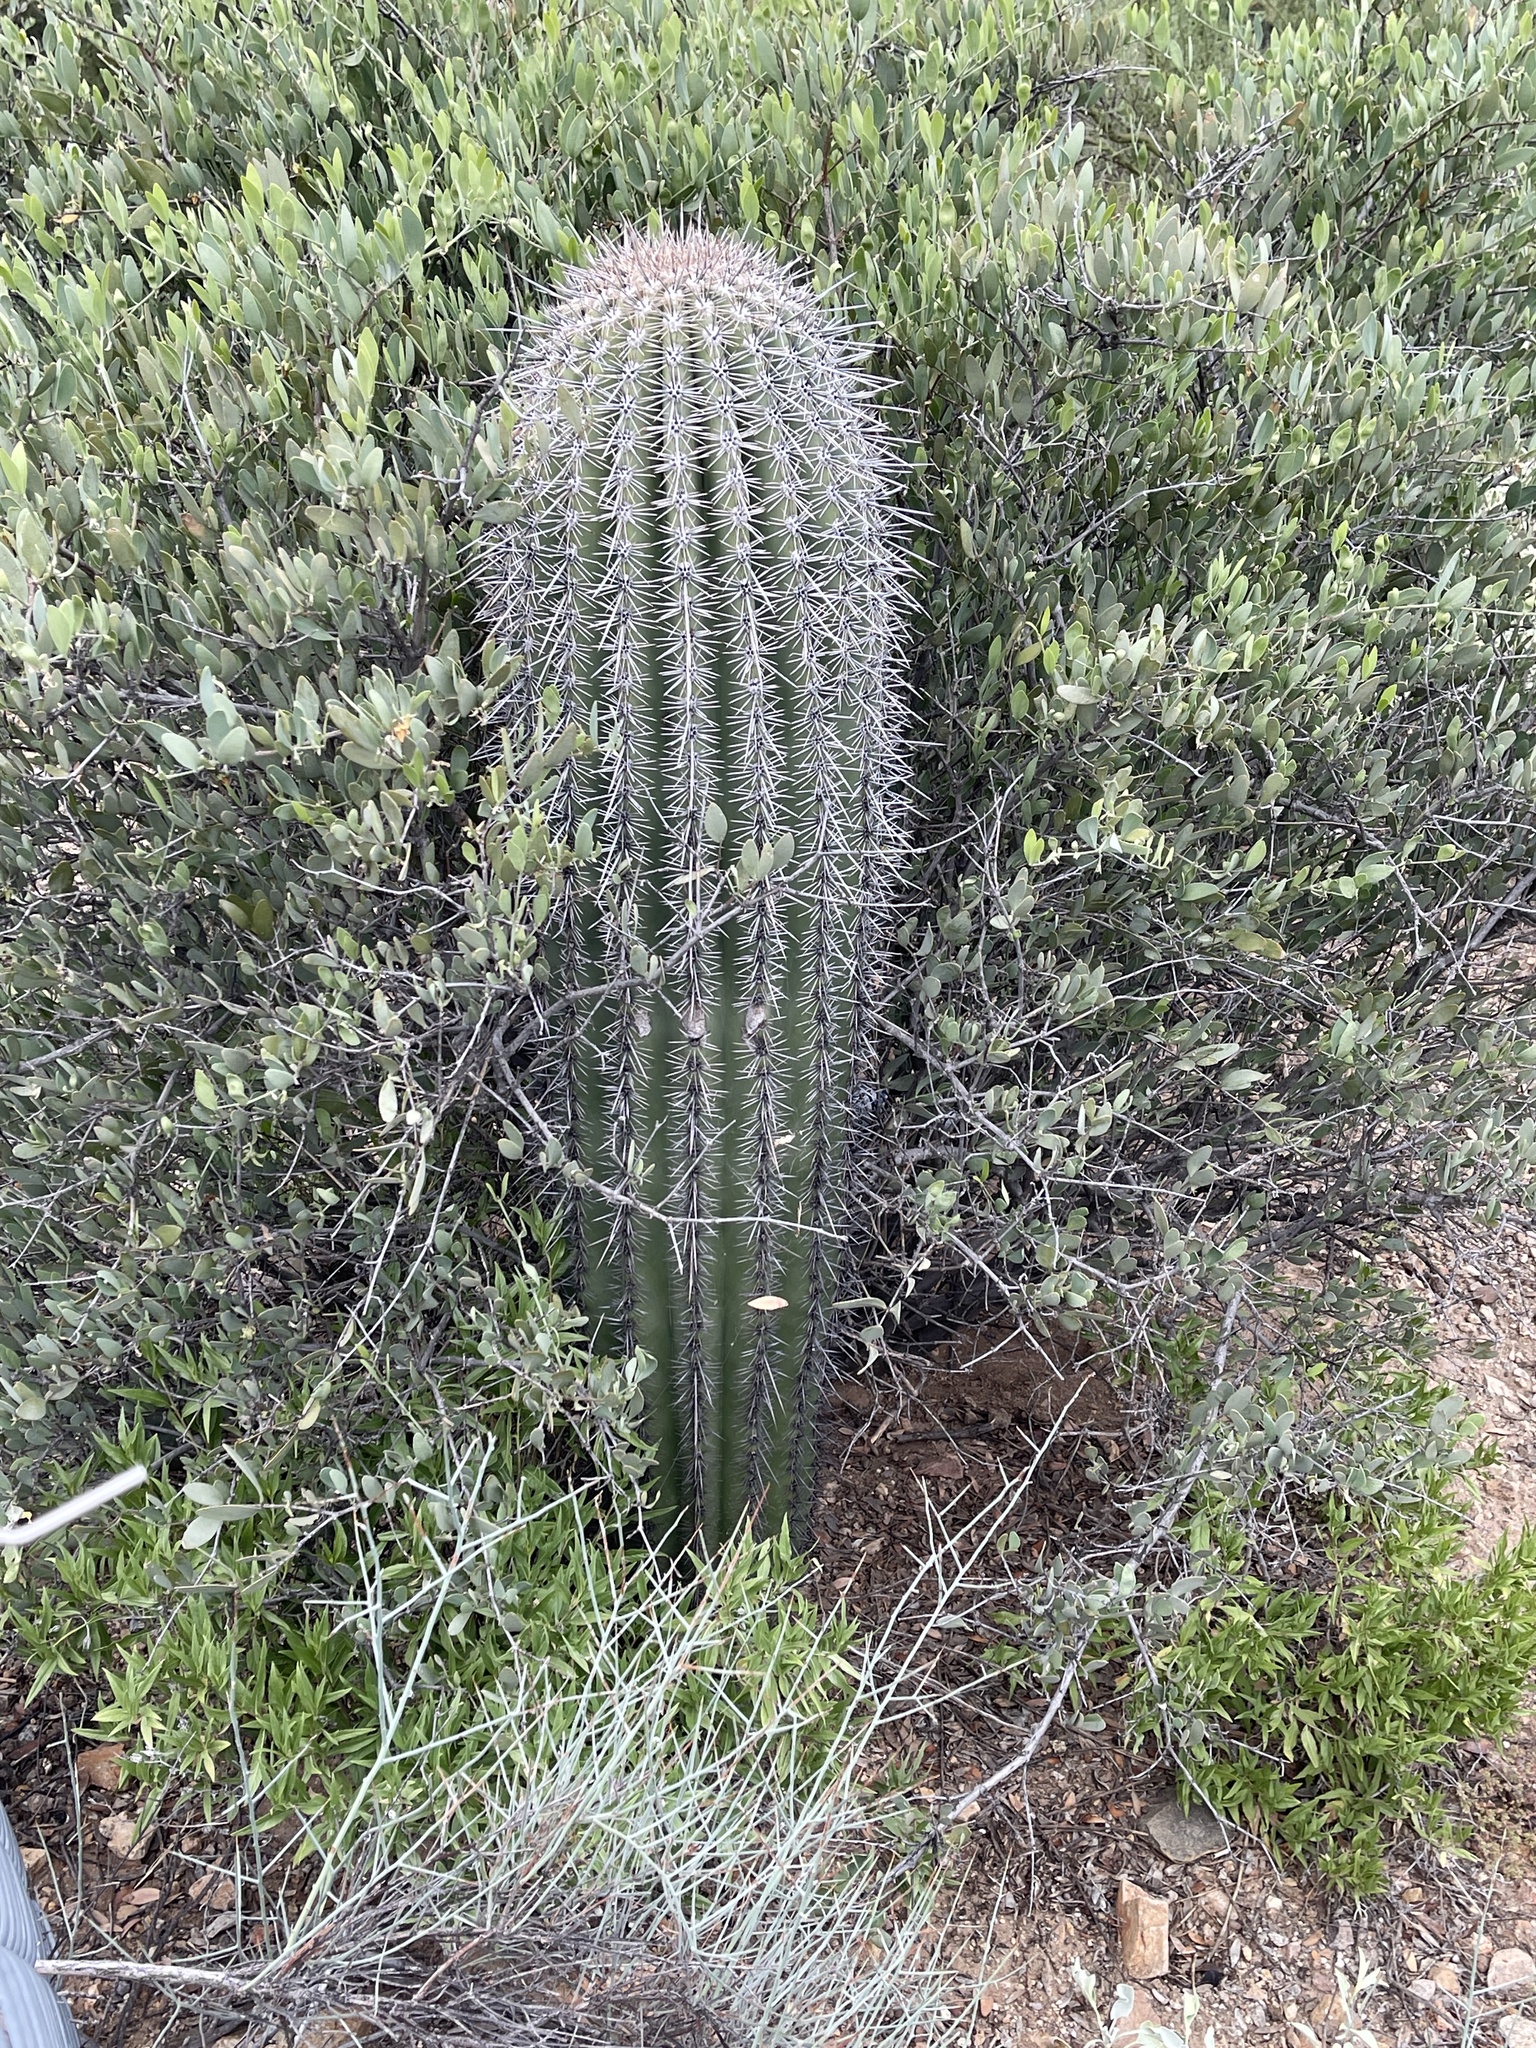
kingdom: Plantae
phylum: Tracheophyta
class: Magnoliopsida
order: Caryophyllales
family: Cactaceae
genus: Carnegiea
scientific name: Carnegiea gigantea
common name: Saguaro
